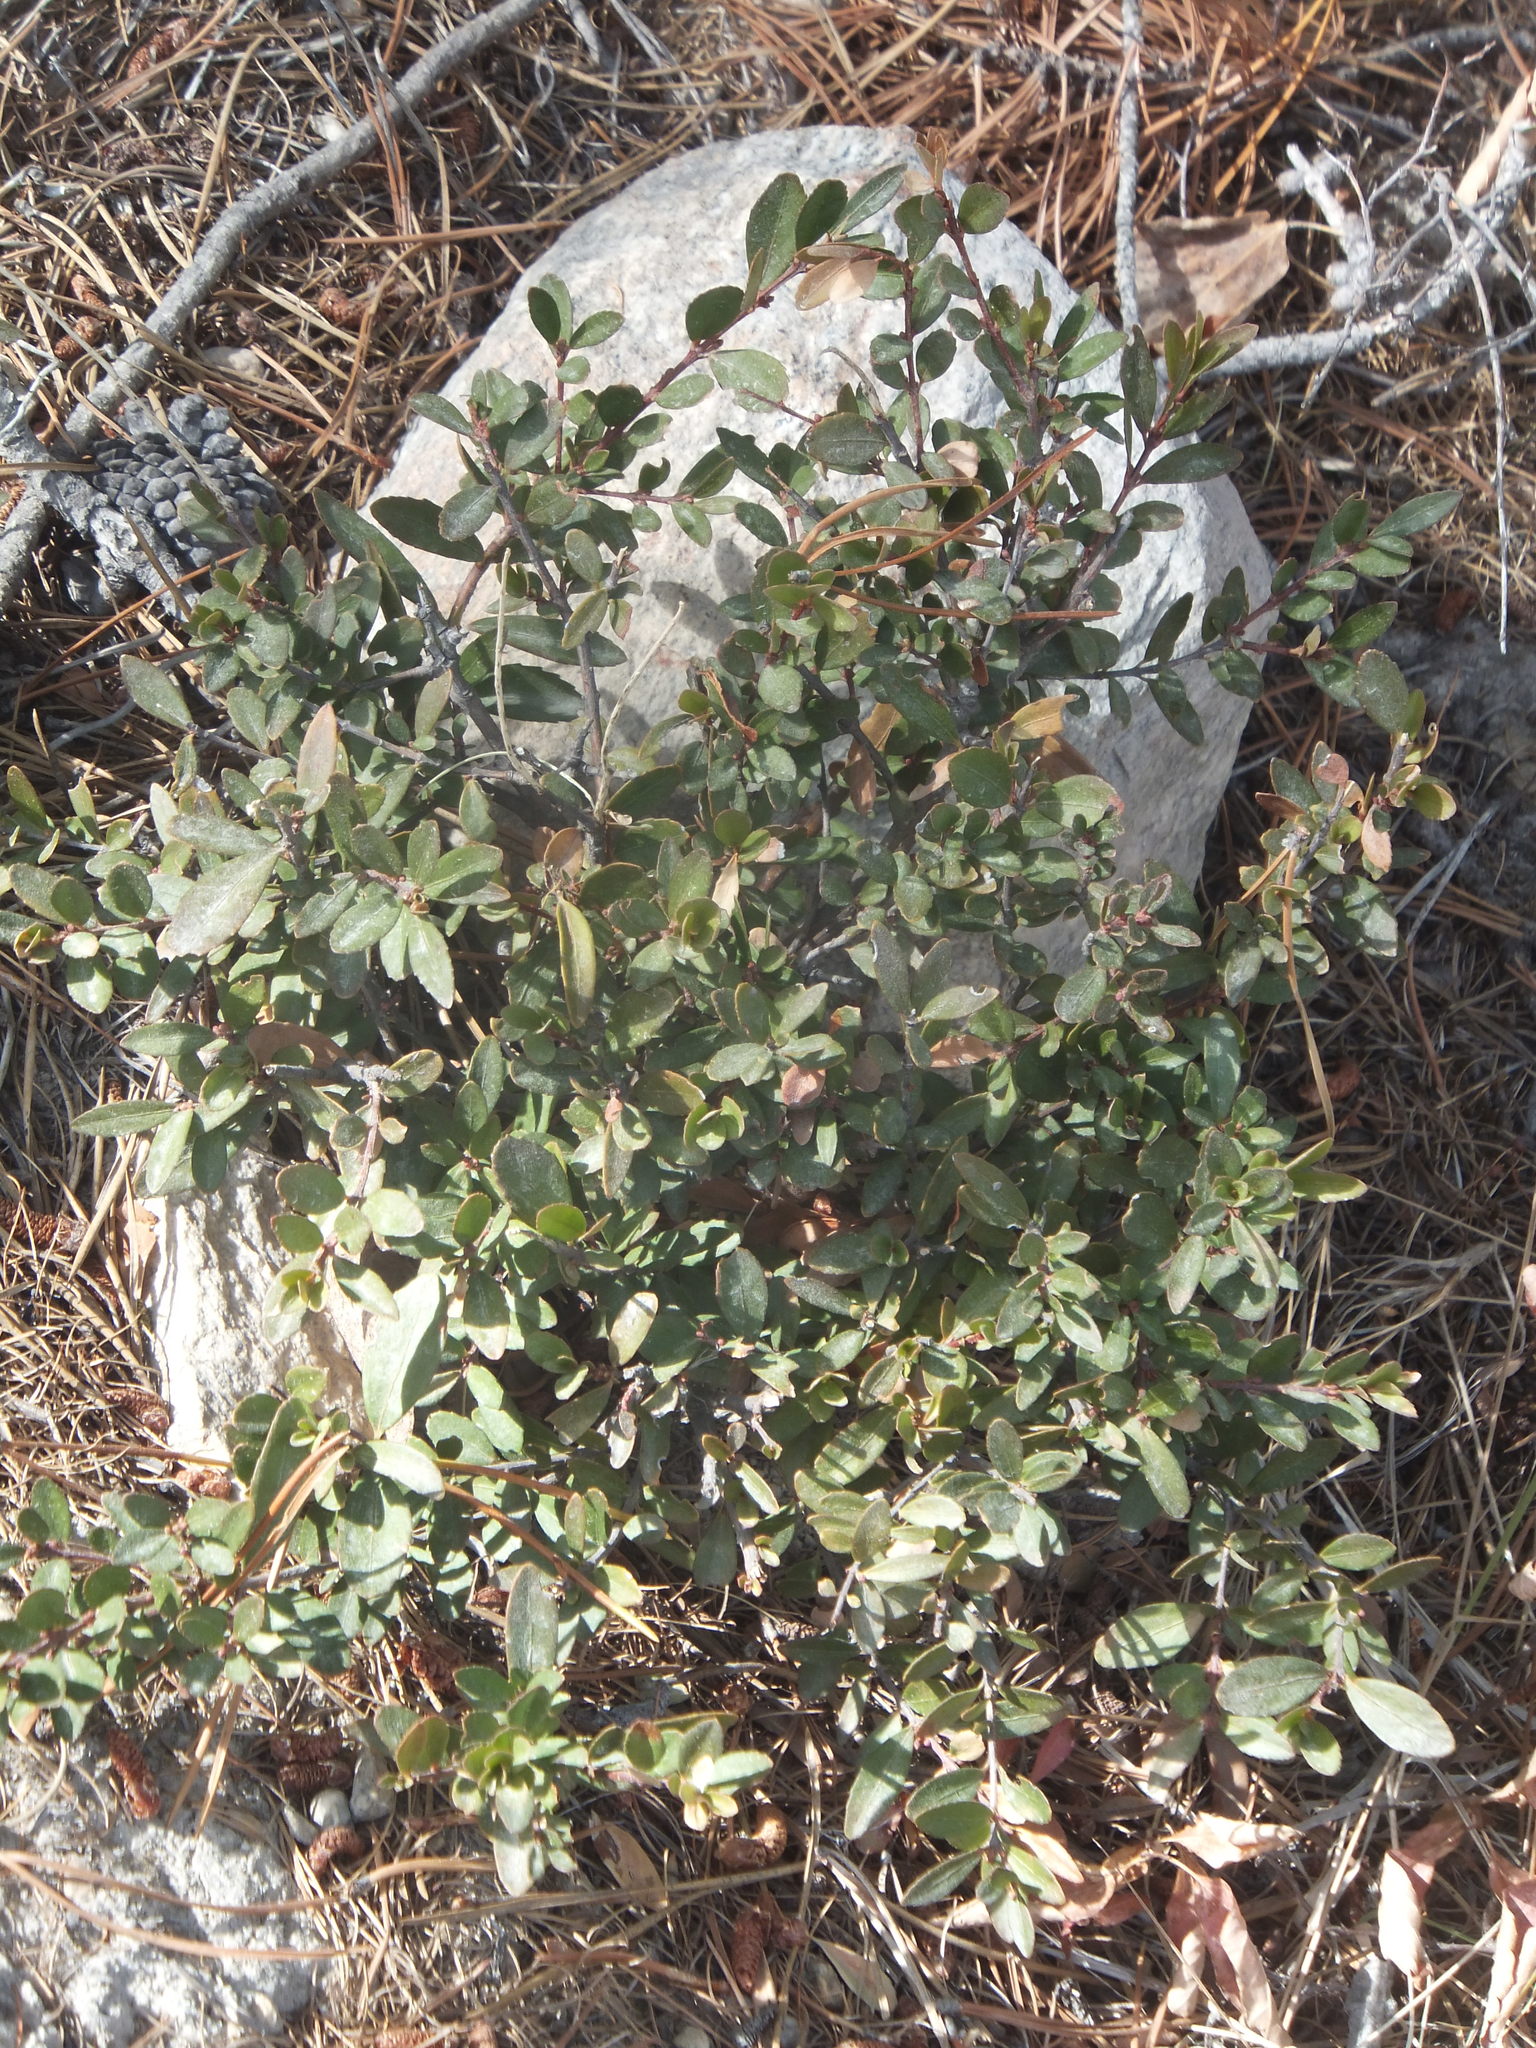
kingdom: Plantae
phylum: Tracheophyta
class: Magnoliopsida
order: Celastrales
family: Celastraceae
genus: Paxistima
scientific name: Paxistima myrsinites
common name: Mountain-lover
